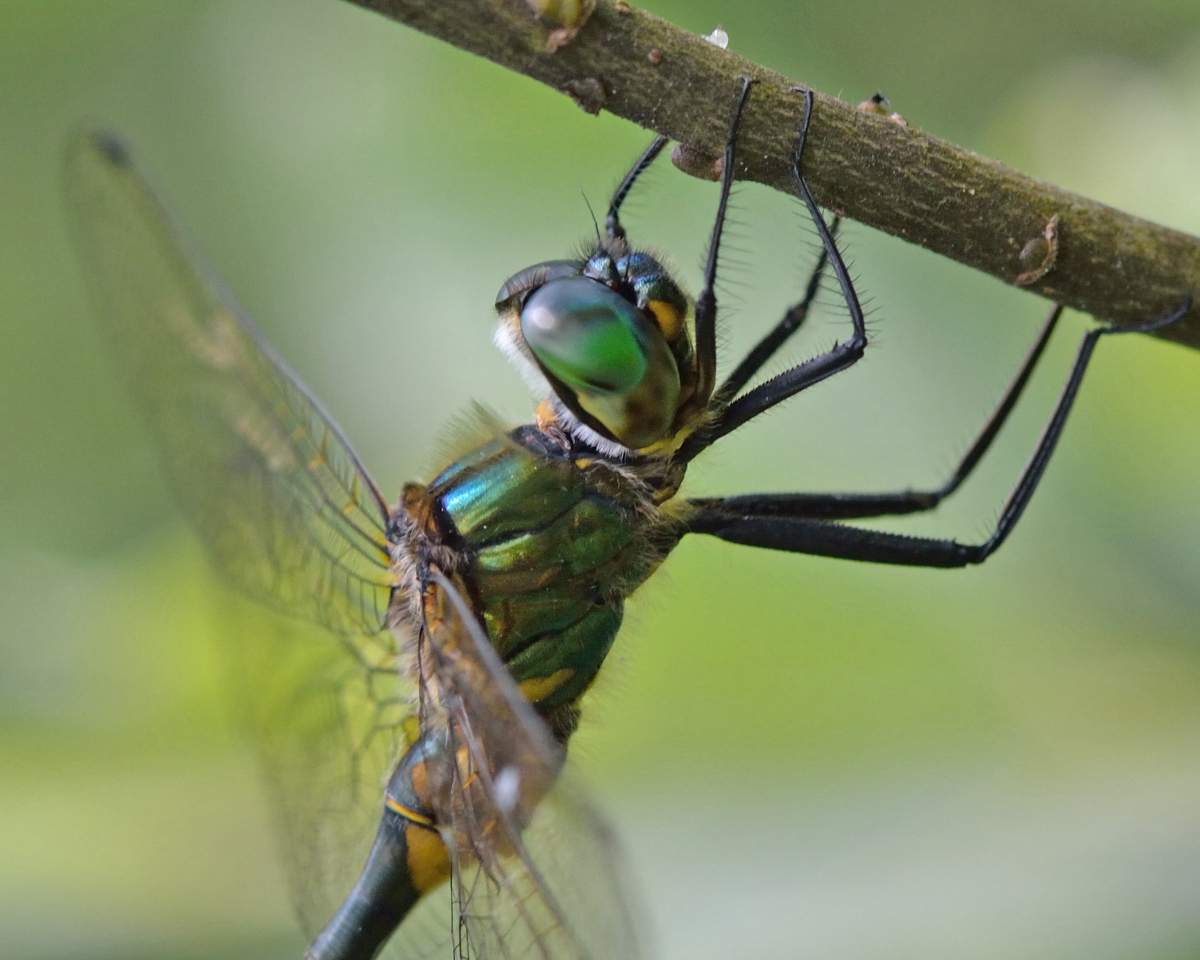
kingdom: Animalia
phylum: Arthropoda
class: Insecta
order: Odonata
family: Corduliidae
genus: Somatochlora
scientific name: Somatochlora flavomaculata
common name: Yellow-spotted emerald
